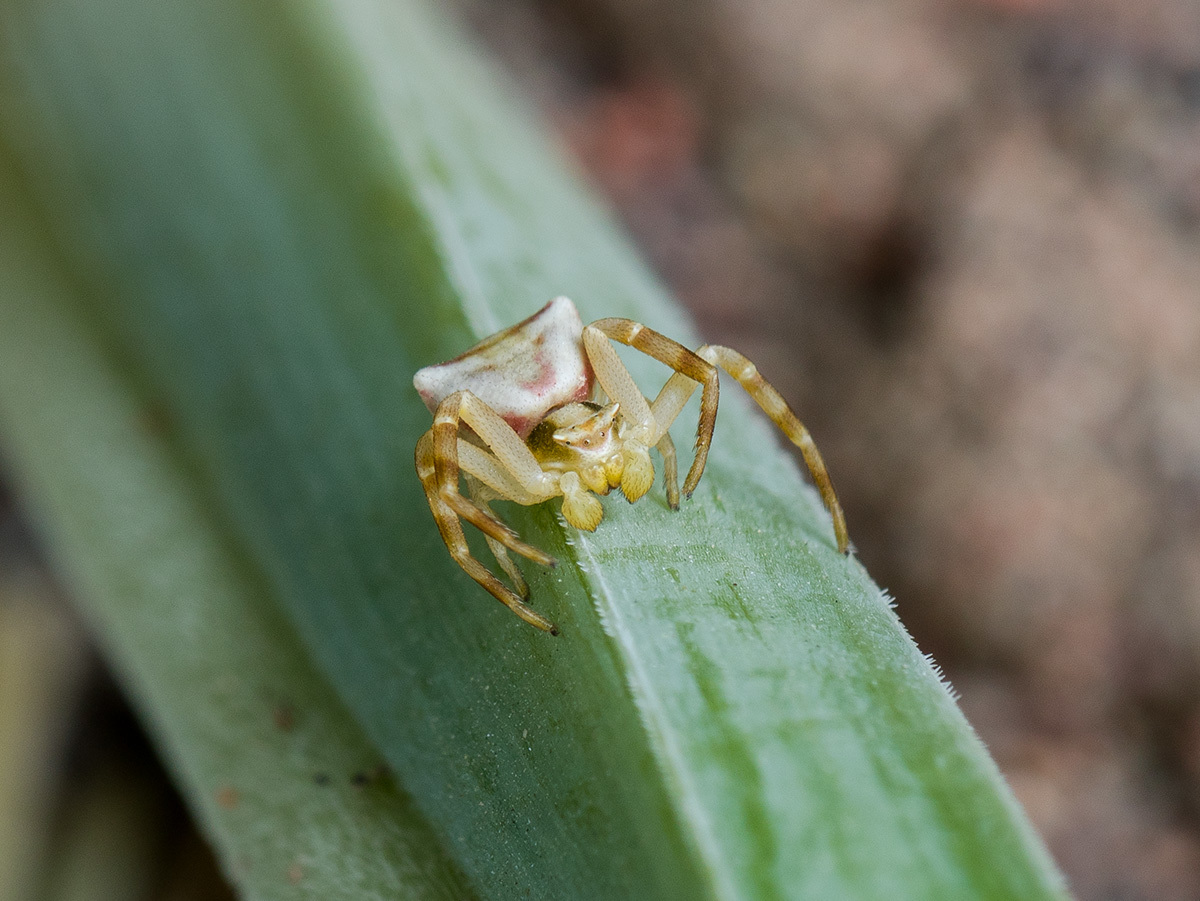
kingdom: Animalia
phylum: Arthropoda
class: Arachnida
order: Araneae
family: Thomisidae
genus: Thomisus
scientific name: Thomisus onustus
